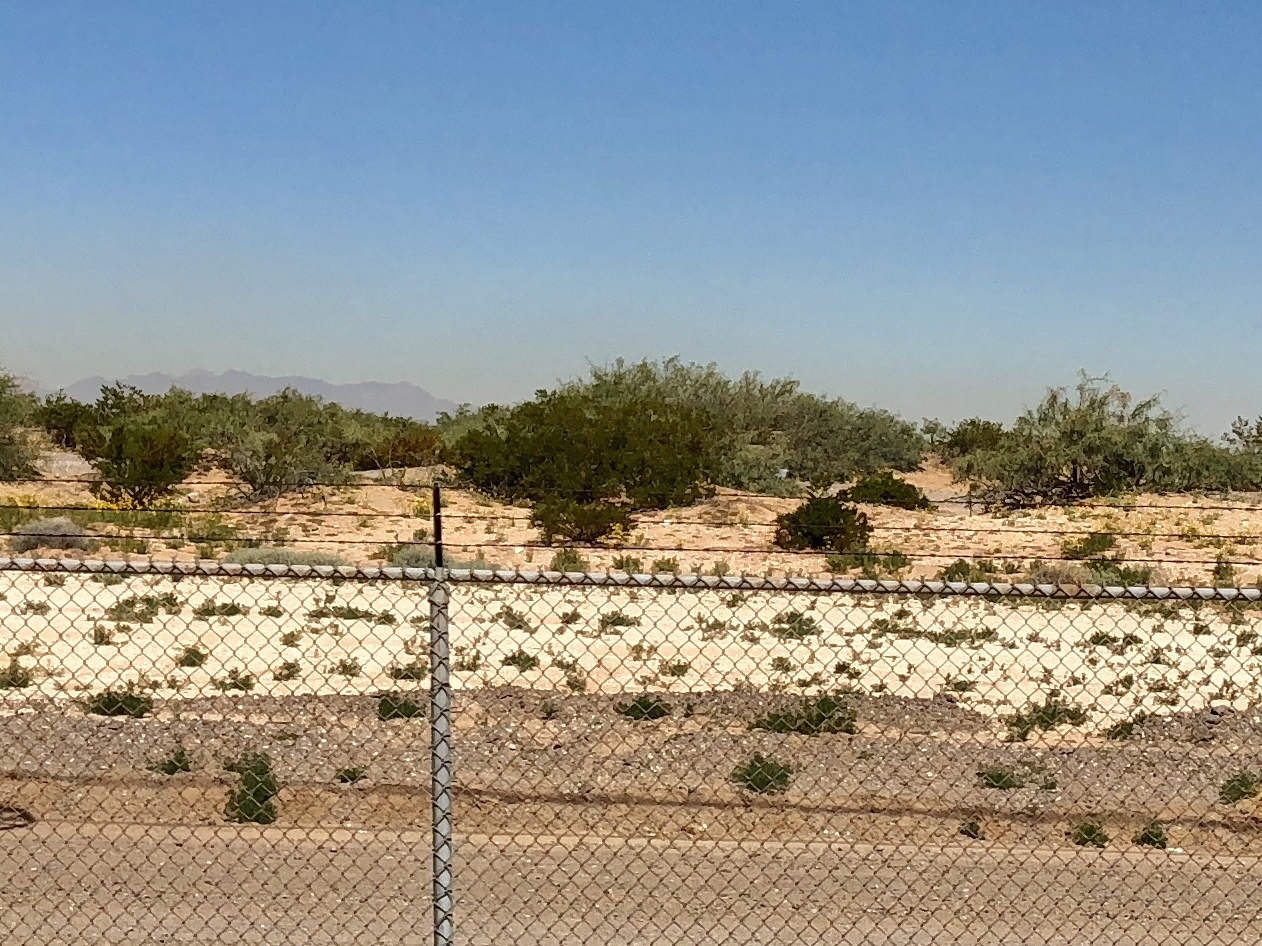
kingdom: Plantae
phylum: Tracheophyta
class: Magnoliopsida
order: Zygophyllales
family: Zygophyllaceae
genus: Larrea
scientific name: Larrea tridentata
